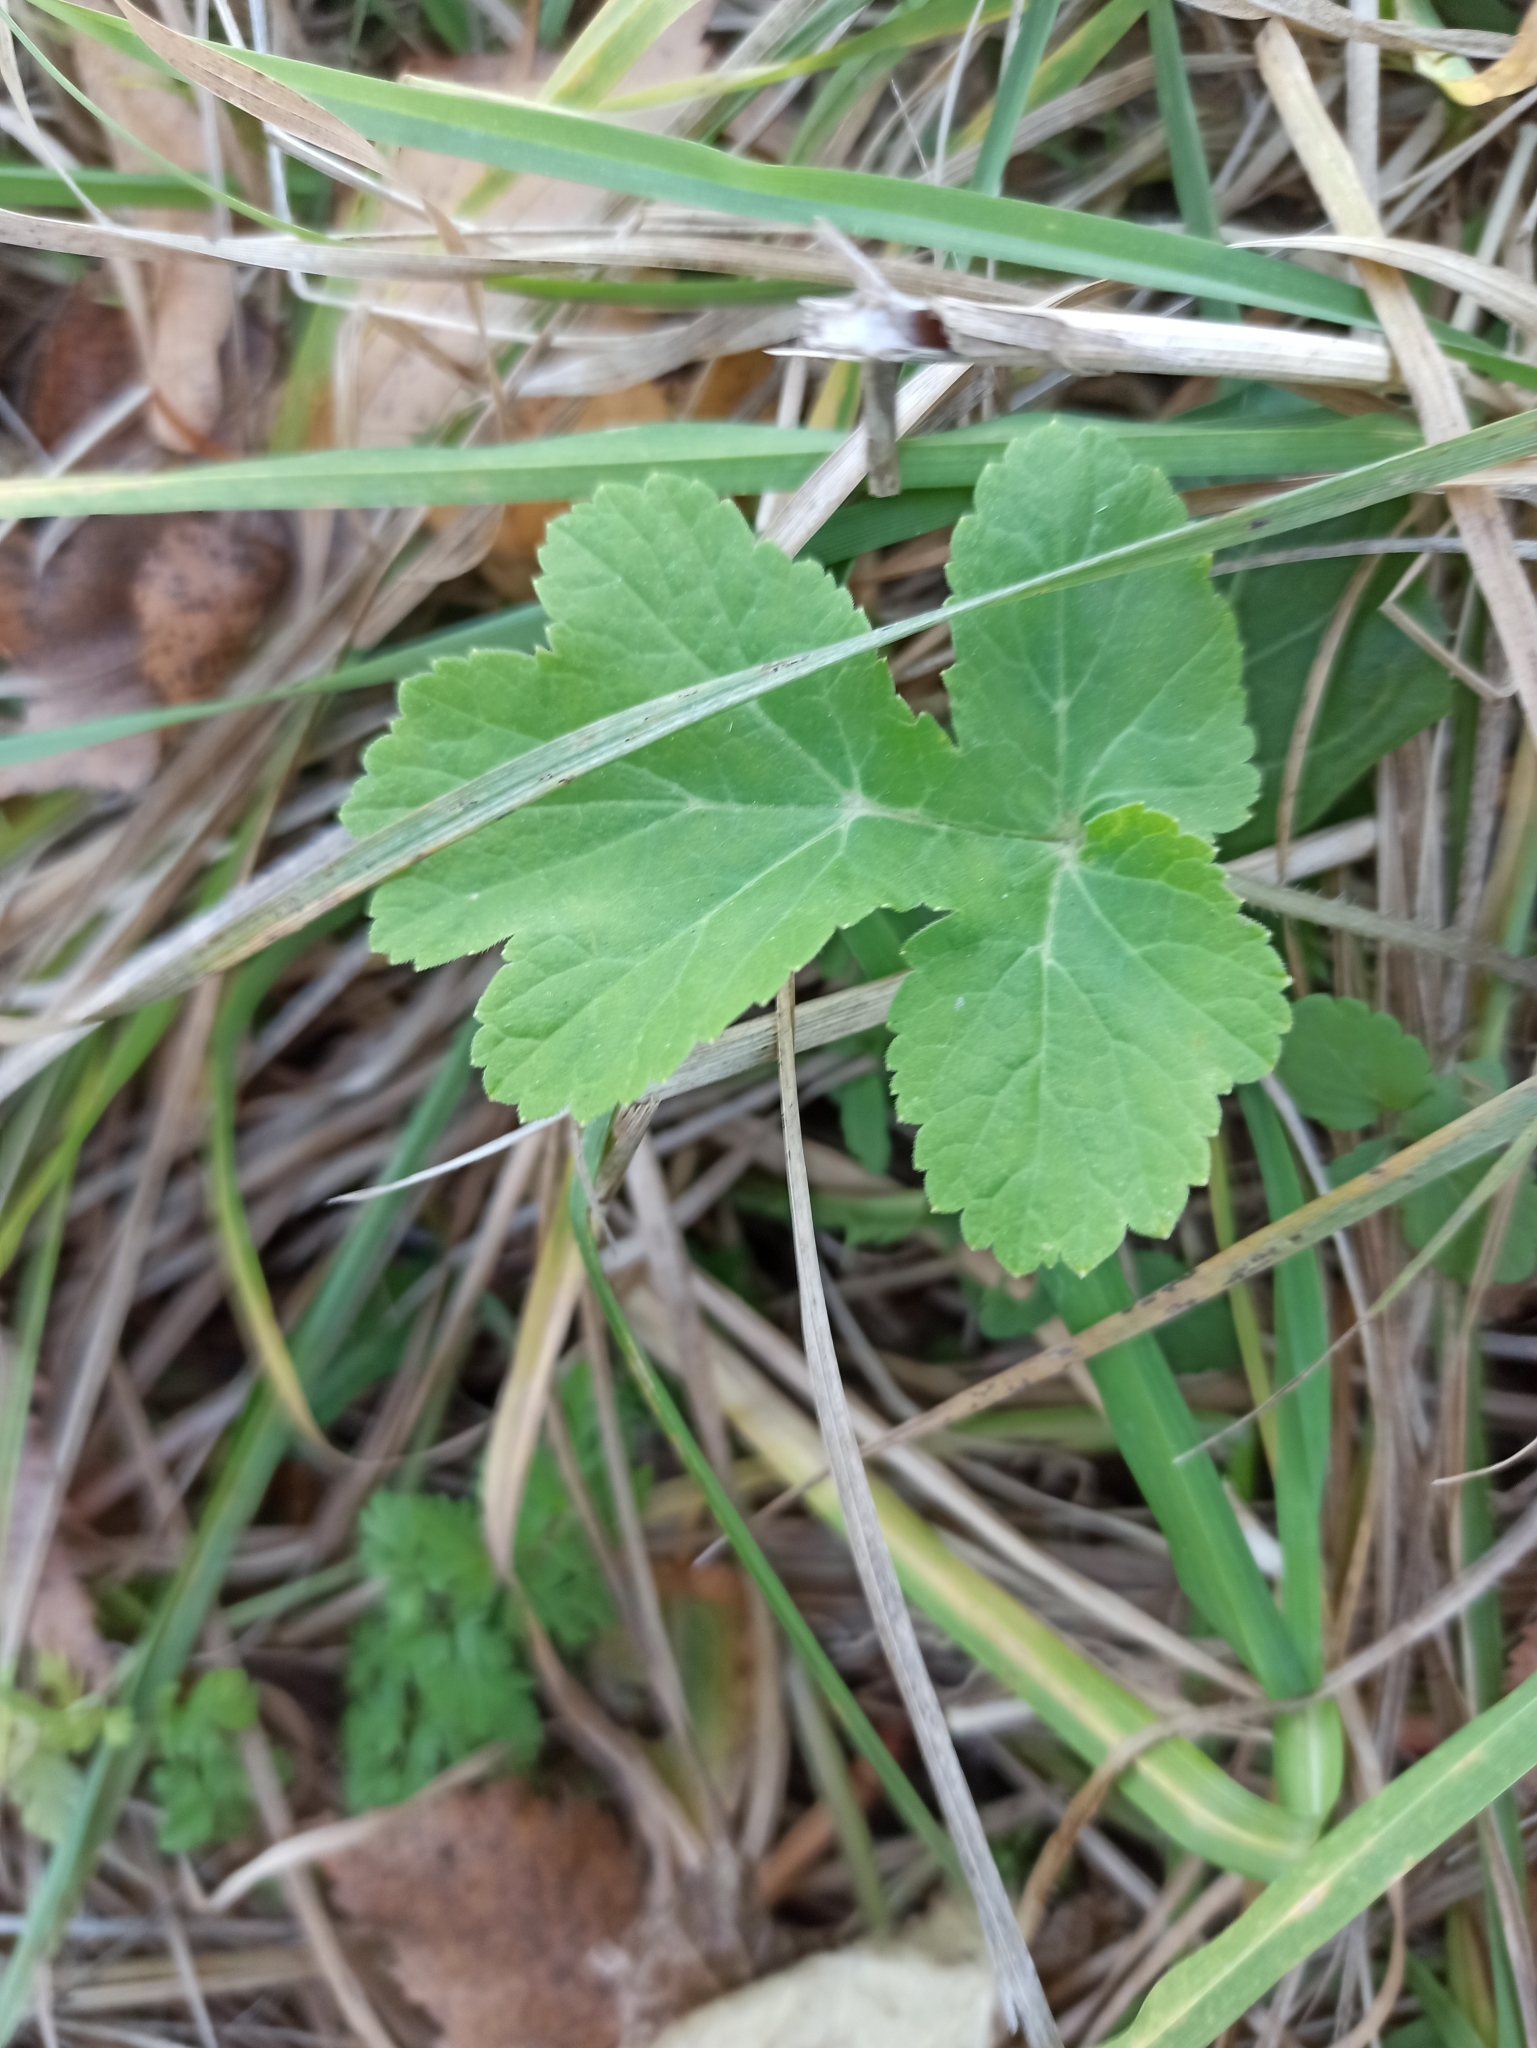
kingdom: Plantae
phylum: Tracheophyta
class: Magnoliopsida
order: Apiales
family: Apiaceae
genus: Heracleum
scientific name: Heracleum sphondylium
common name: Hogweed
